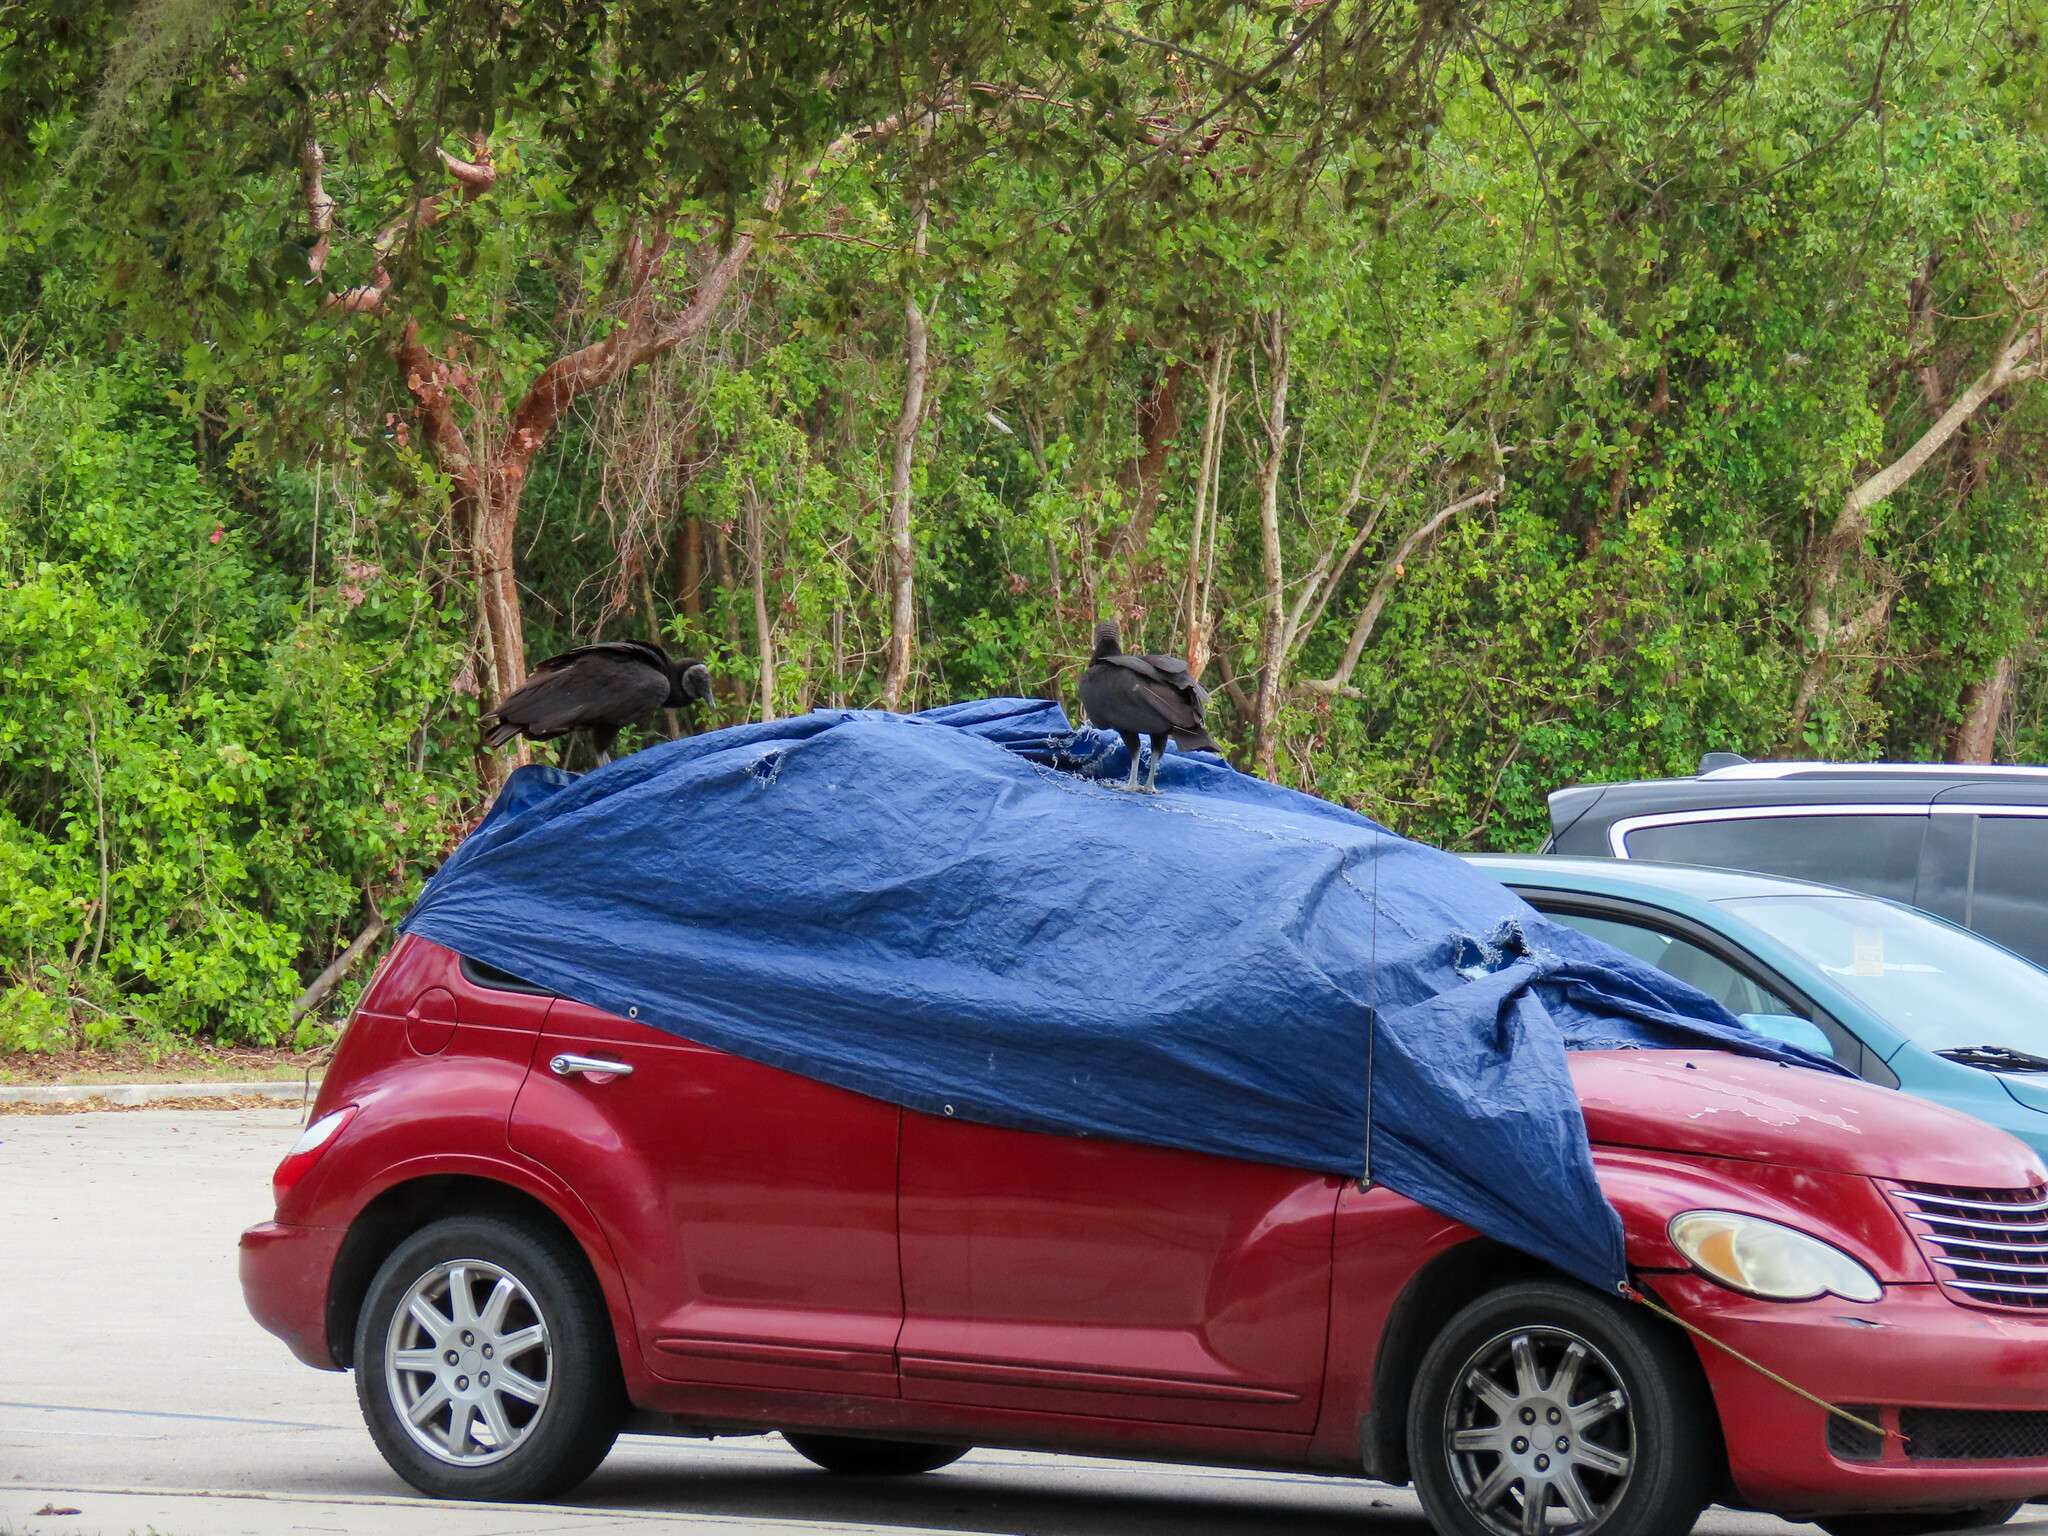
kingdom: Animalia
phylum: Chordata
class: Aves
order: Accipitriformes
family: Cathartidae
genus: Coragyps
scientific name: Coragyps atratus
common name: Black vulture
